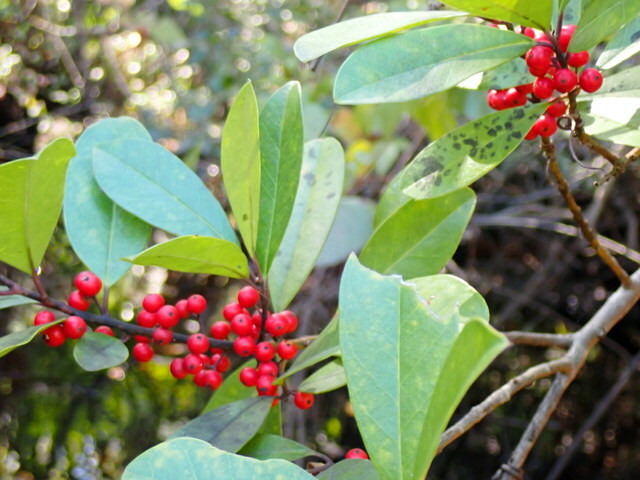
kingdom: Plantae
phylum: Tracheophyta
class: Magnoliopsida
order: Aquifoliales
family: Aquifoliaceae
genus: Ilex
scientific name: Ilex cassine
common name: Dahoon
